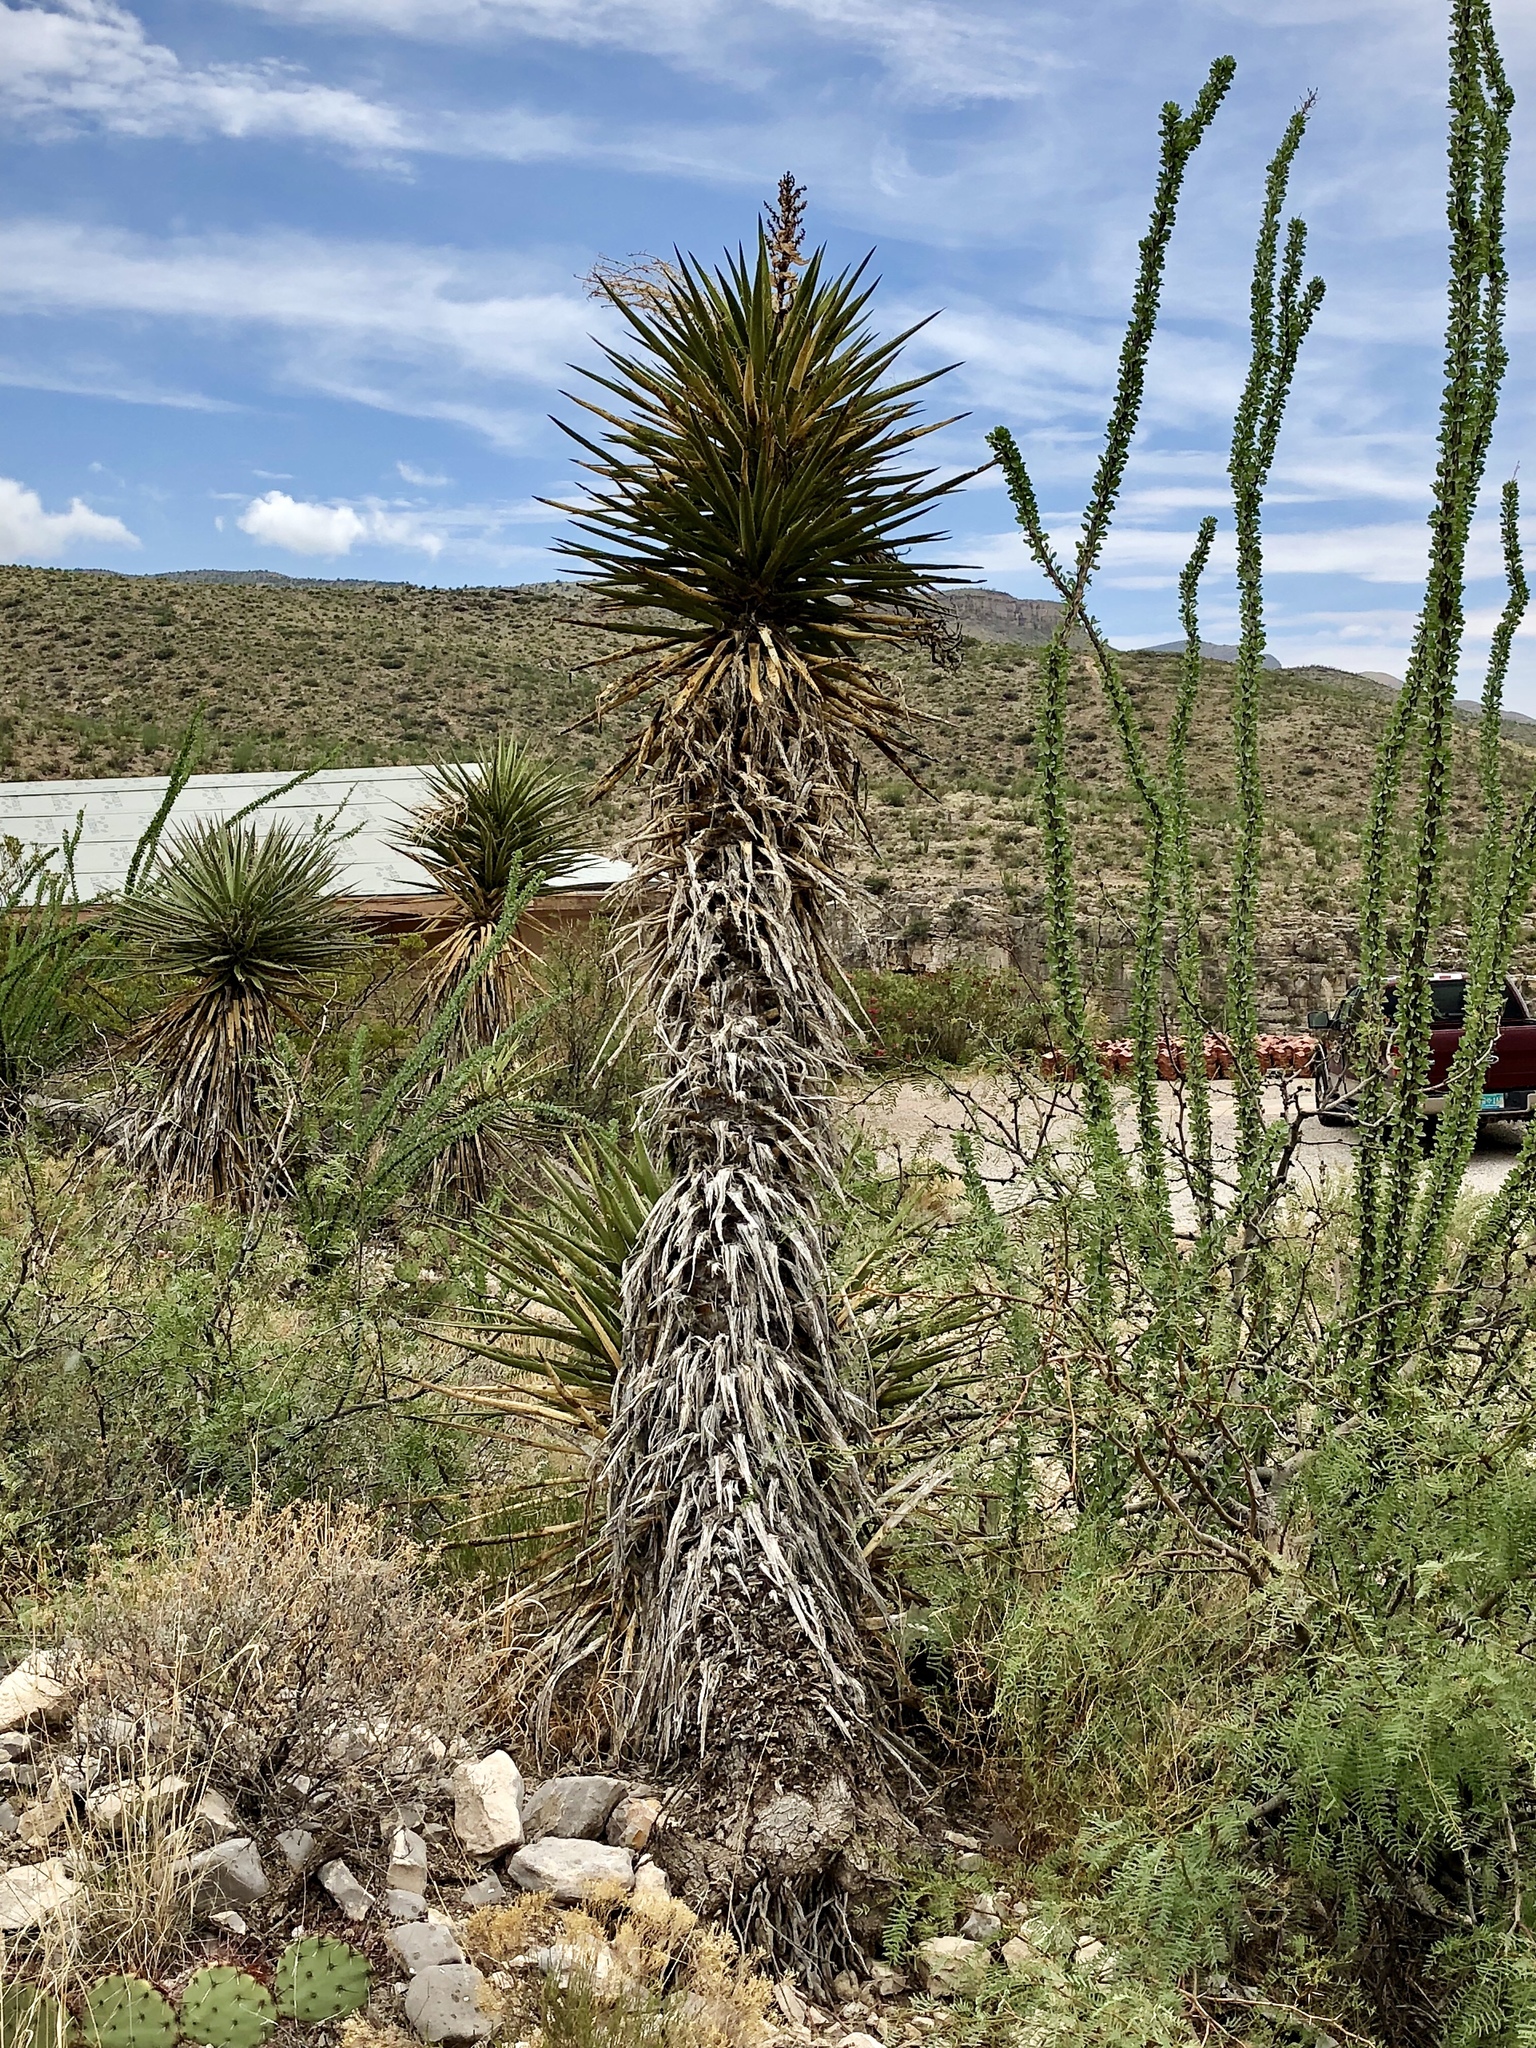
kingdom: Plantae
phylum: Tracheophyta
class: Liliopsida
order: Asparagales
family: Asparagaceae
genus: Yucca
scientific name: Yucca treculiana
